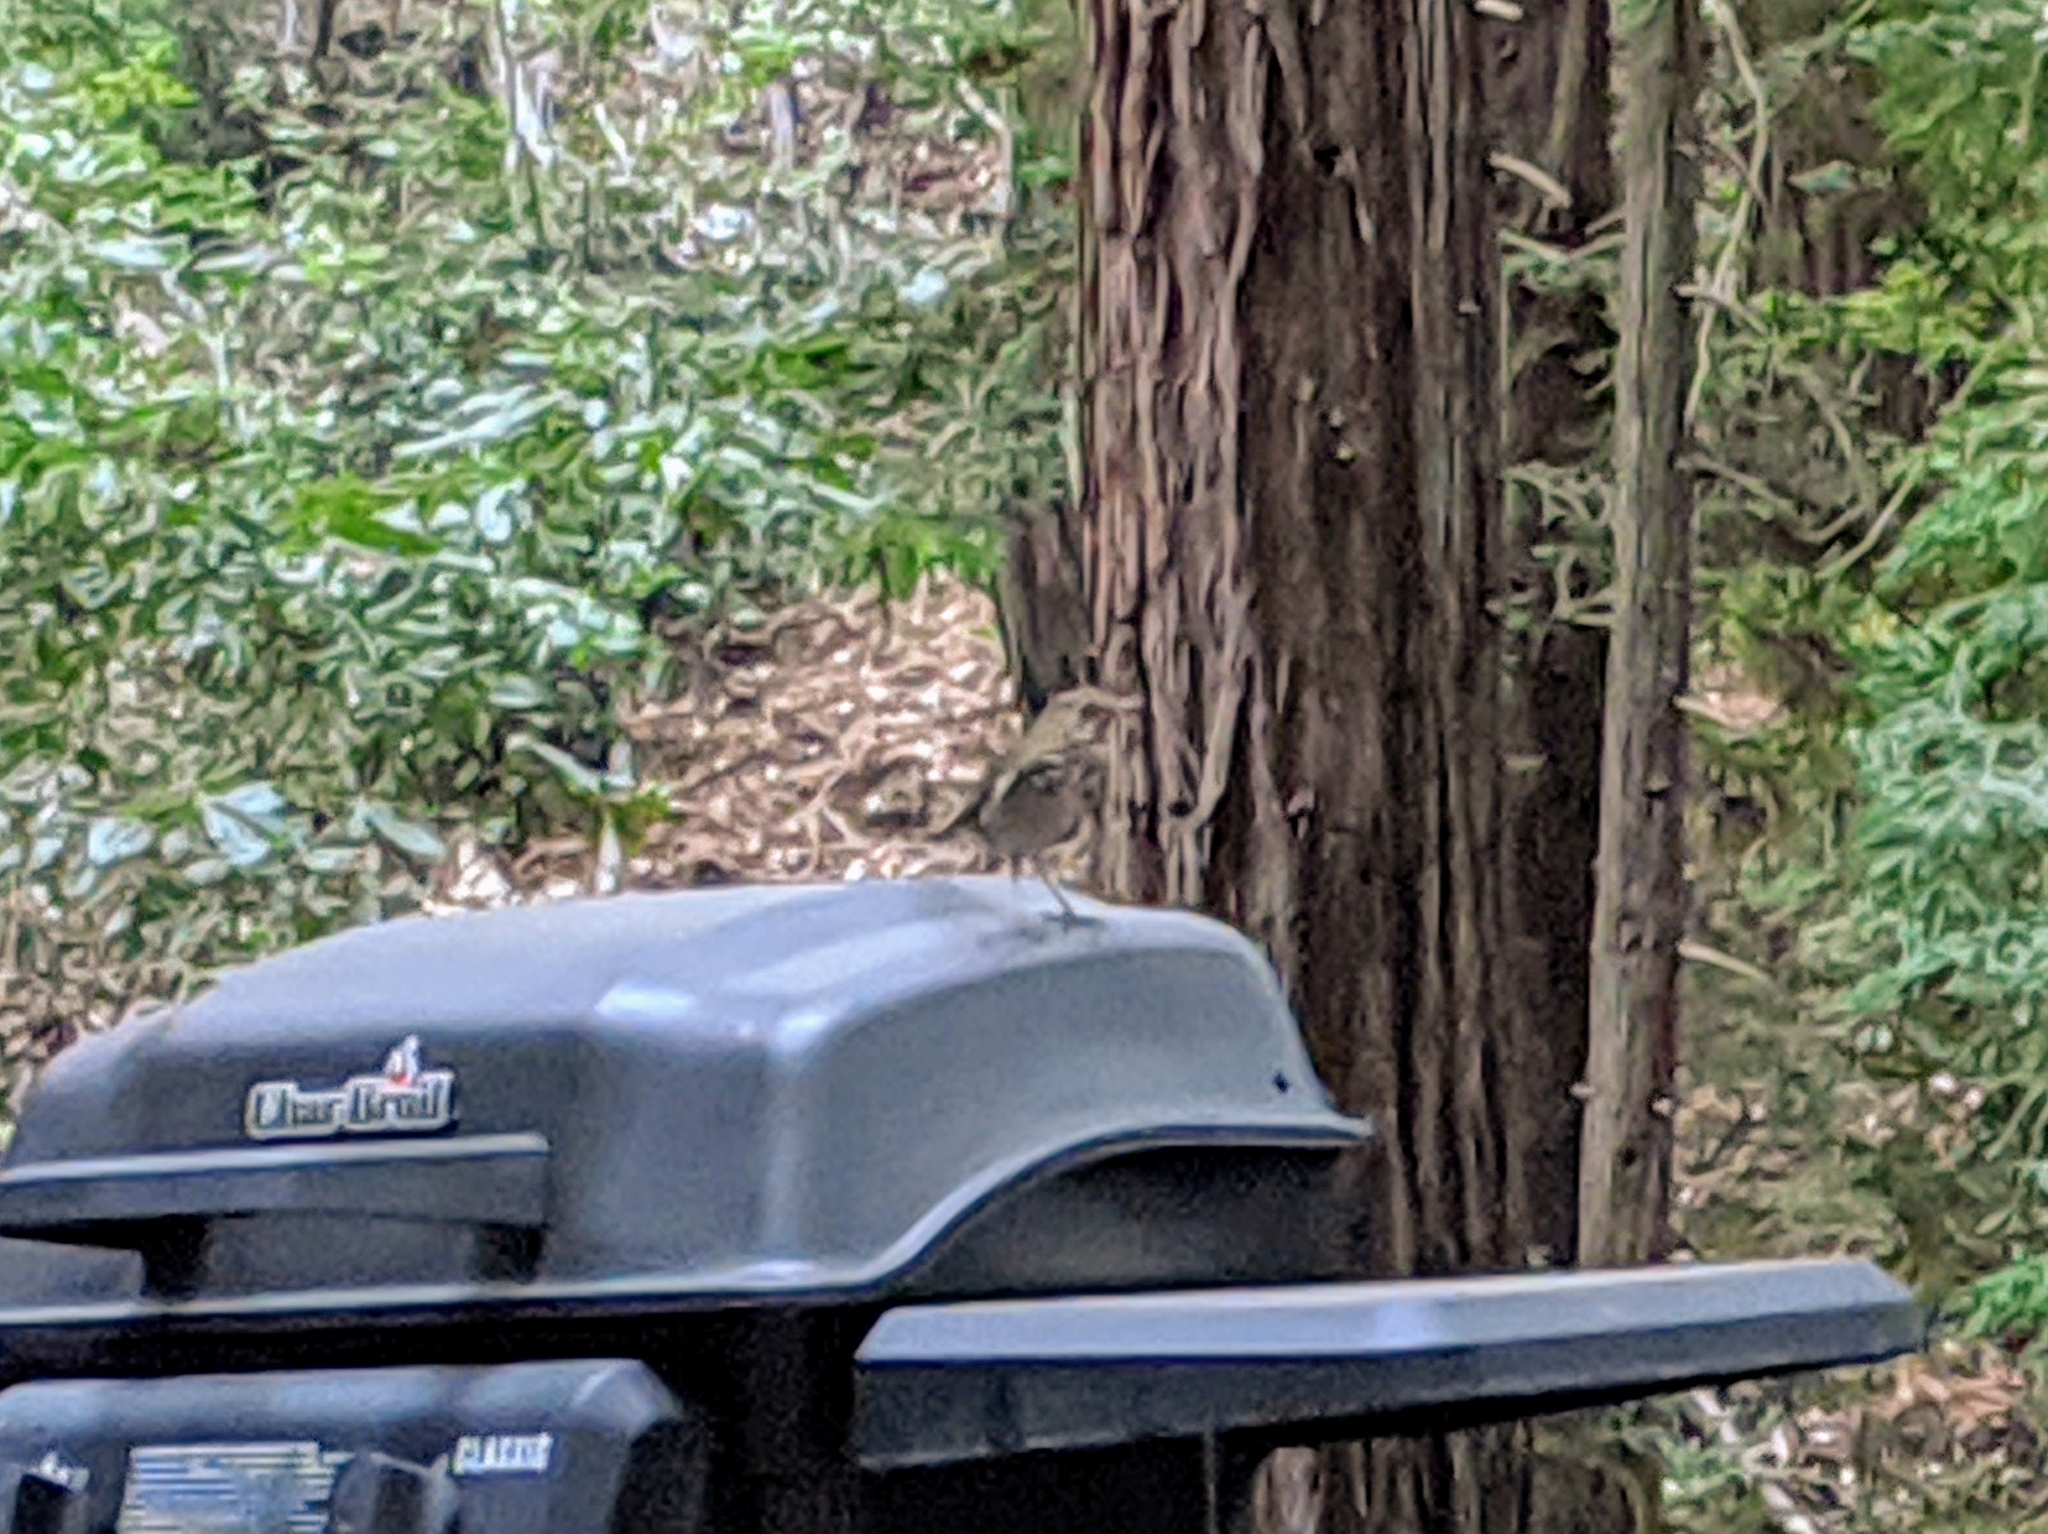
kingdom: Animalia
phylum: Chordata
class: Aves
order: Passeriformes
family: Turdidae
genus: Catharus
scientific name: Catharus guttatus
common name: Hermit thrush
